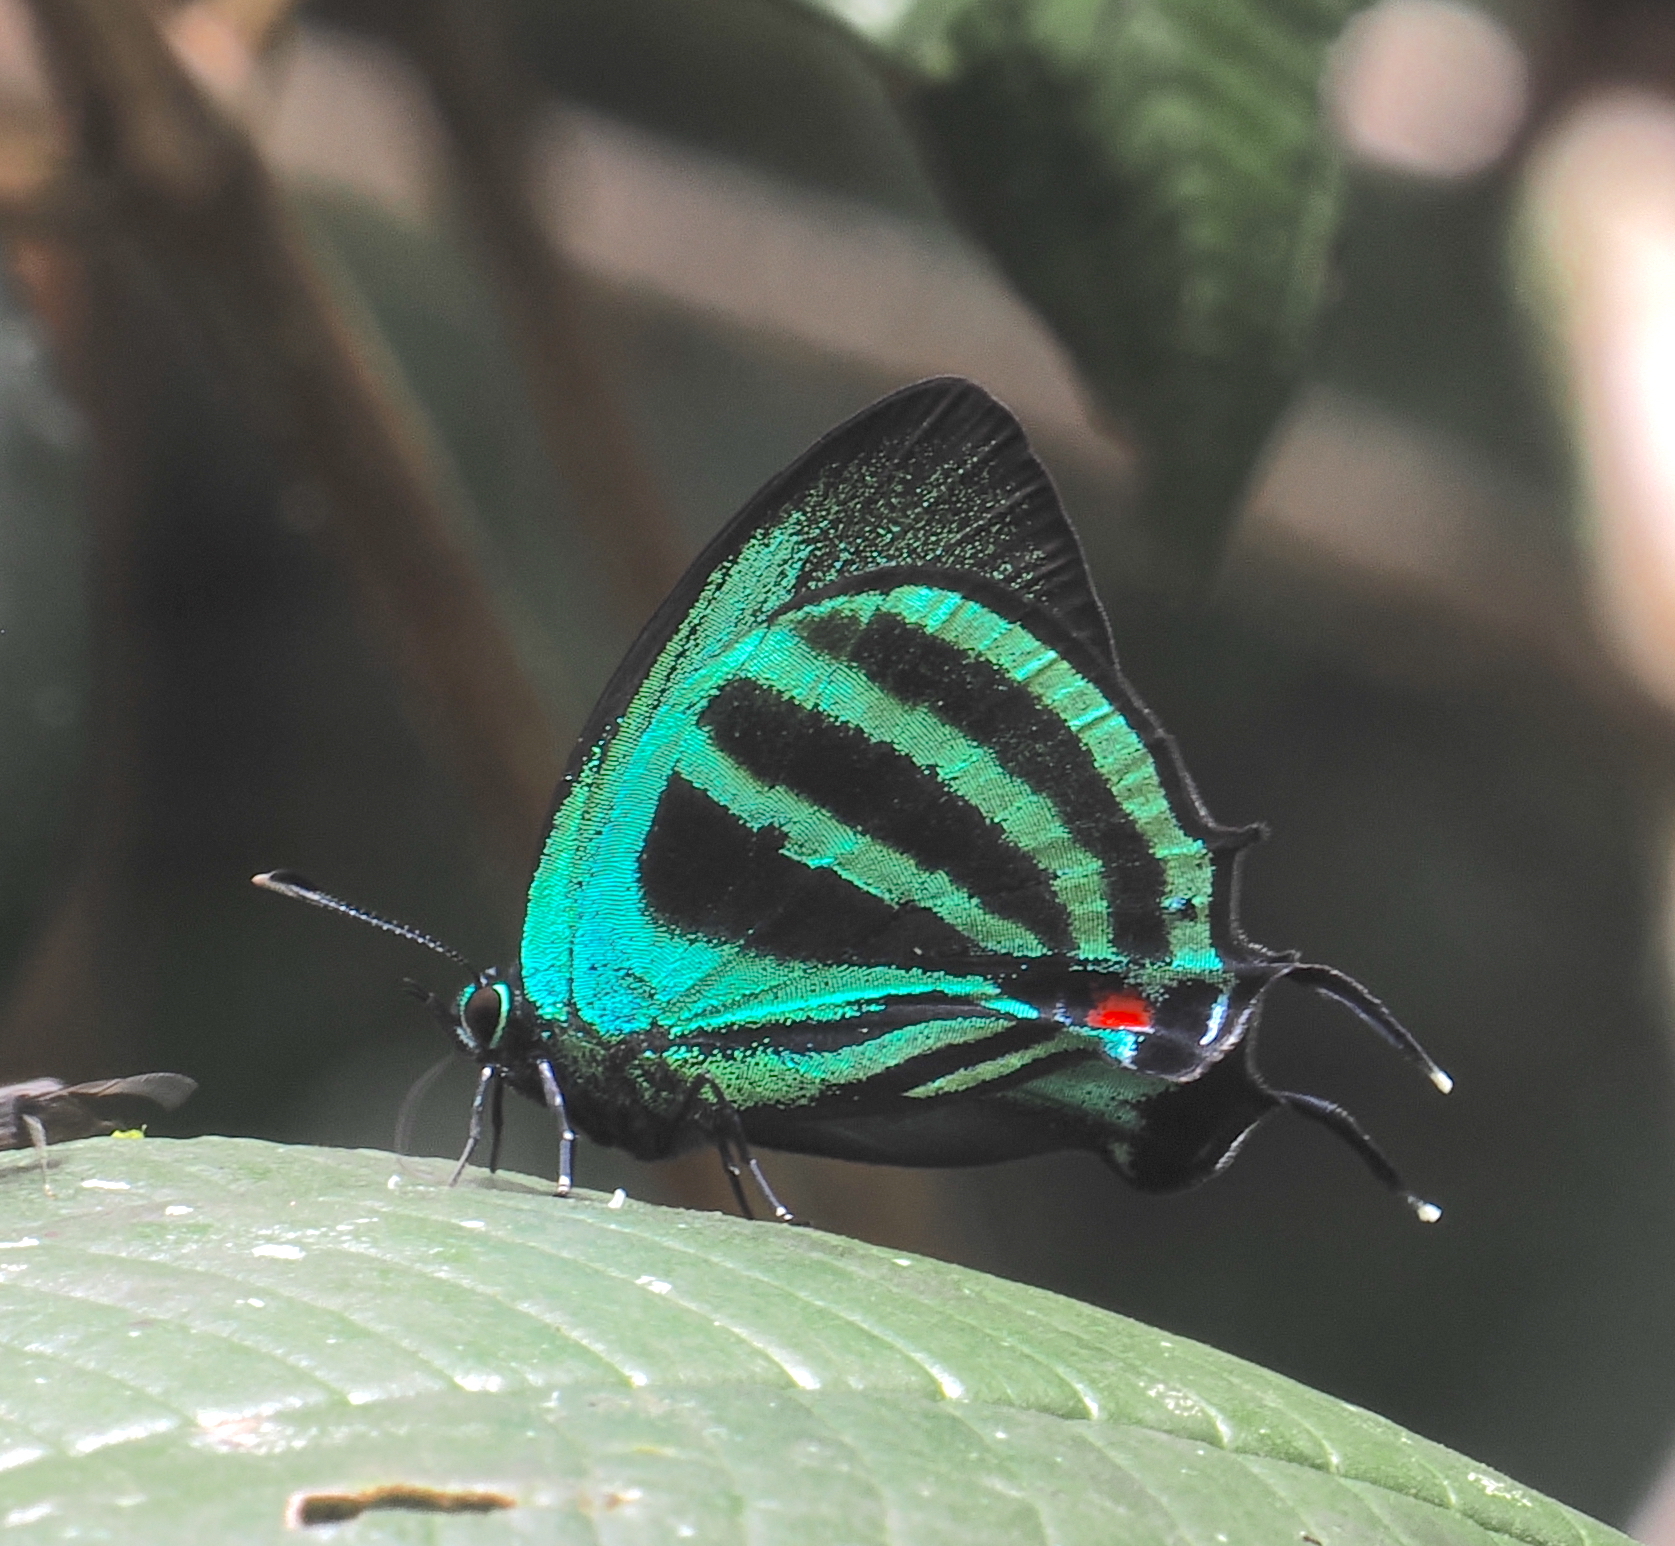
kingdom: Animalia
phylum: Arthropoda
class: Insecta
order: Lepidoptera
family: Lycaenidae
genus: Paiwarria
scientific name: Paiwarria
